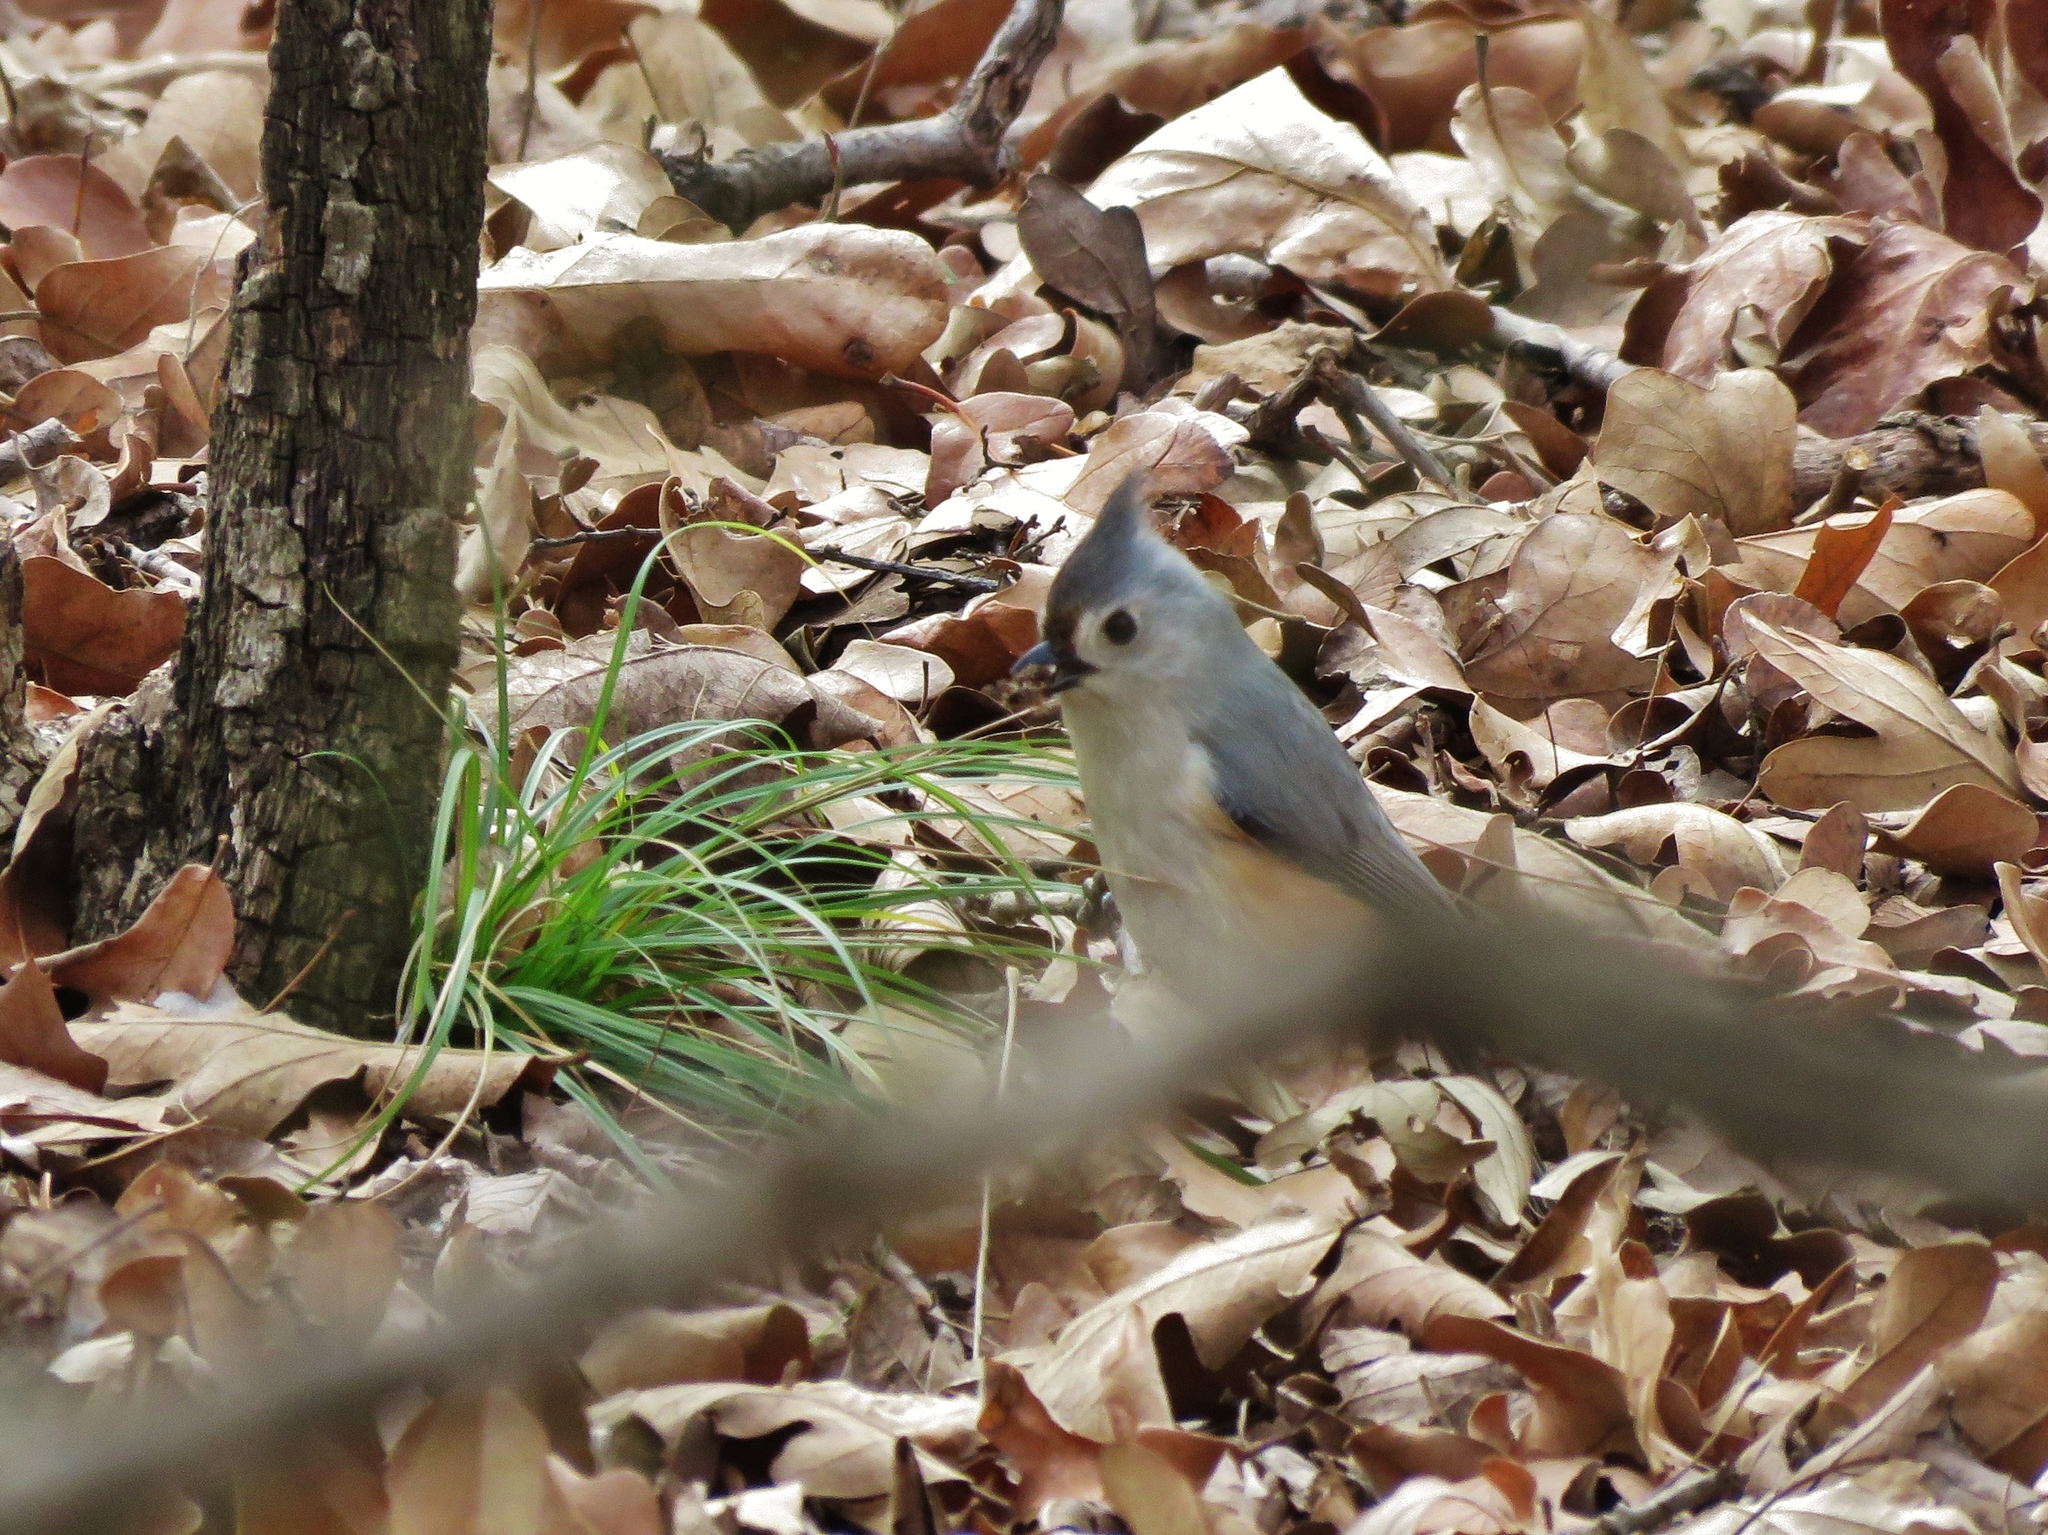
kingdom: Animalia
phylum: Chordata
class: Aves
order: Passeriformes
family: Paridae
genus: Baeolophus
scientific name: Baeolophus bicolor
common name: Tufted titmouse
